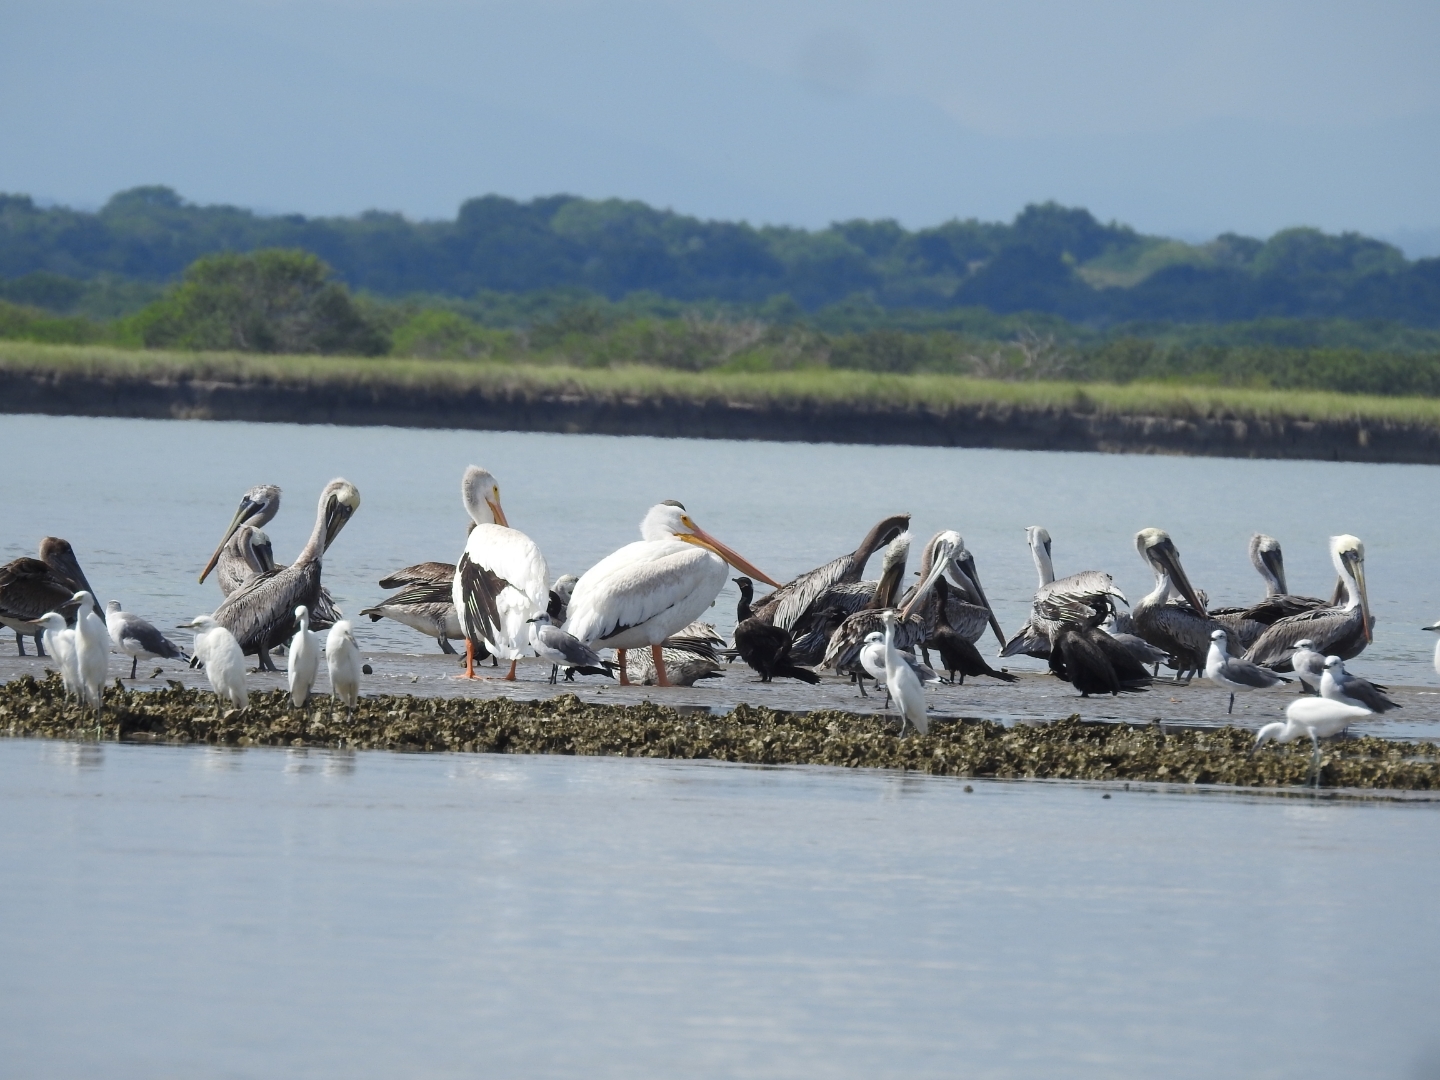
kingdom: Animalia
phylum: Chordata
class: Aves
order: Pelecaniformes
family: Pelecanidae
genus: Pelecanus
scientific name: Pelecanus erythrorhynchos
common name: American white pelican
